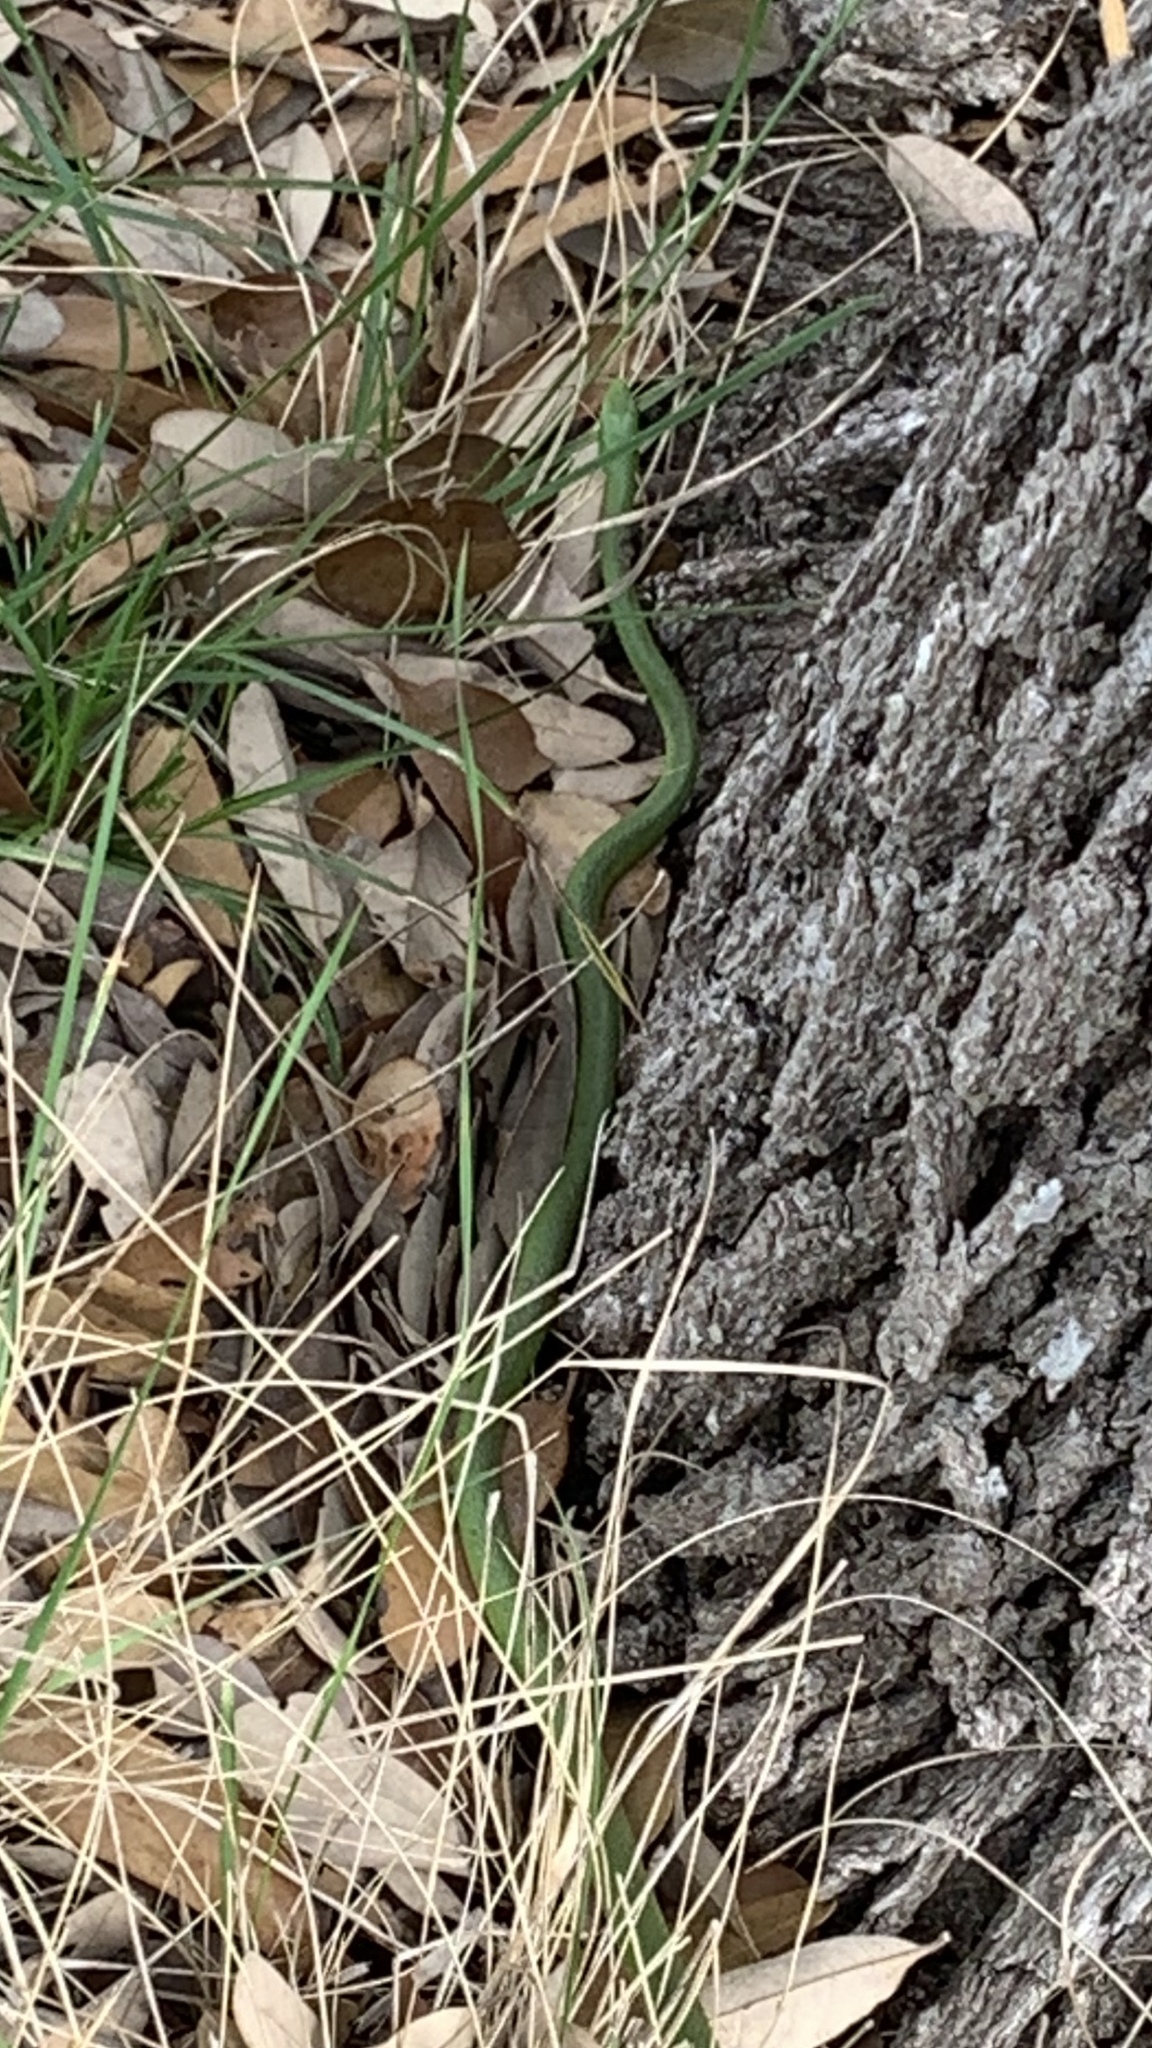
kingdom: Animalia
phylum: Chordata
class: Squamata
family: Colubridae
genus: Opheodrys
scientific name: Opheodrys aestivus
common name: Rough greensnake
